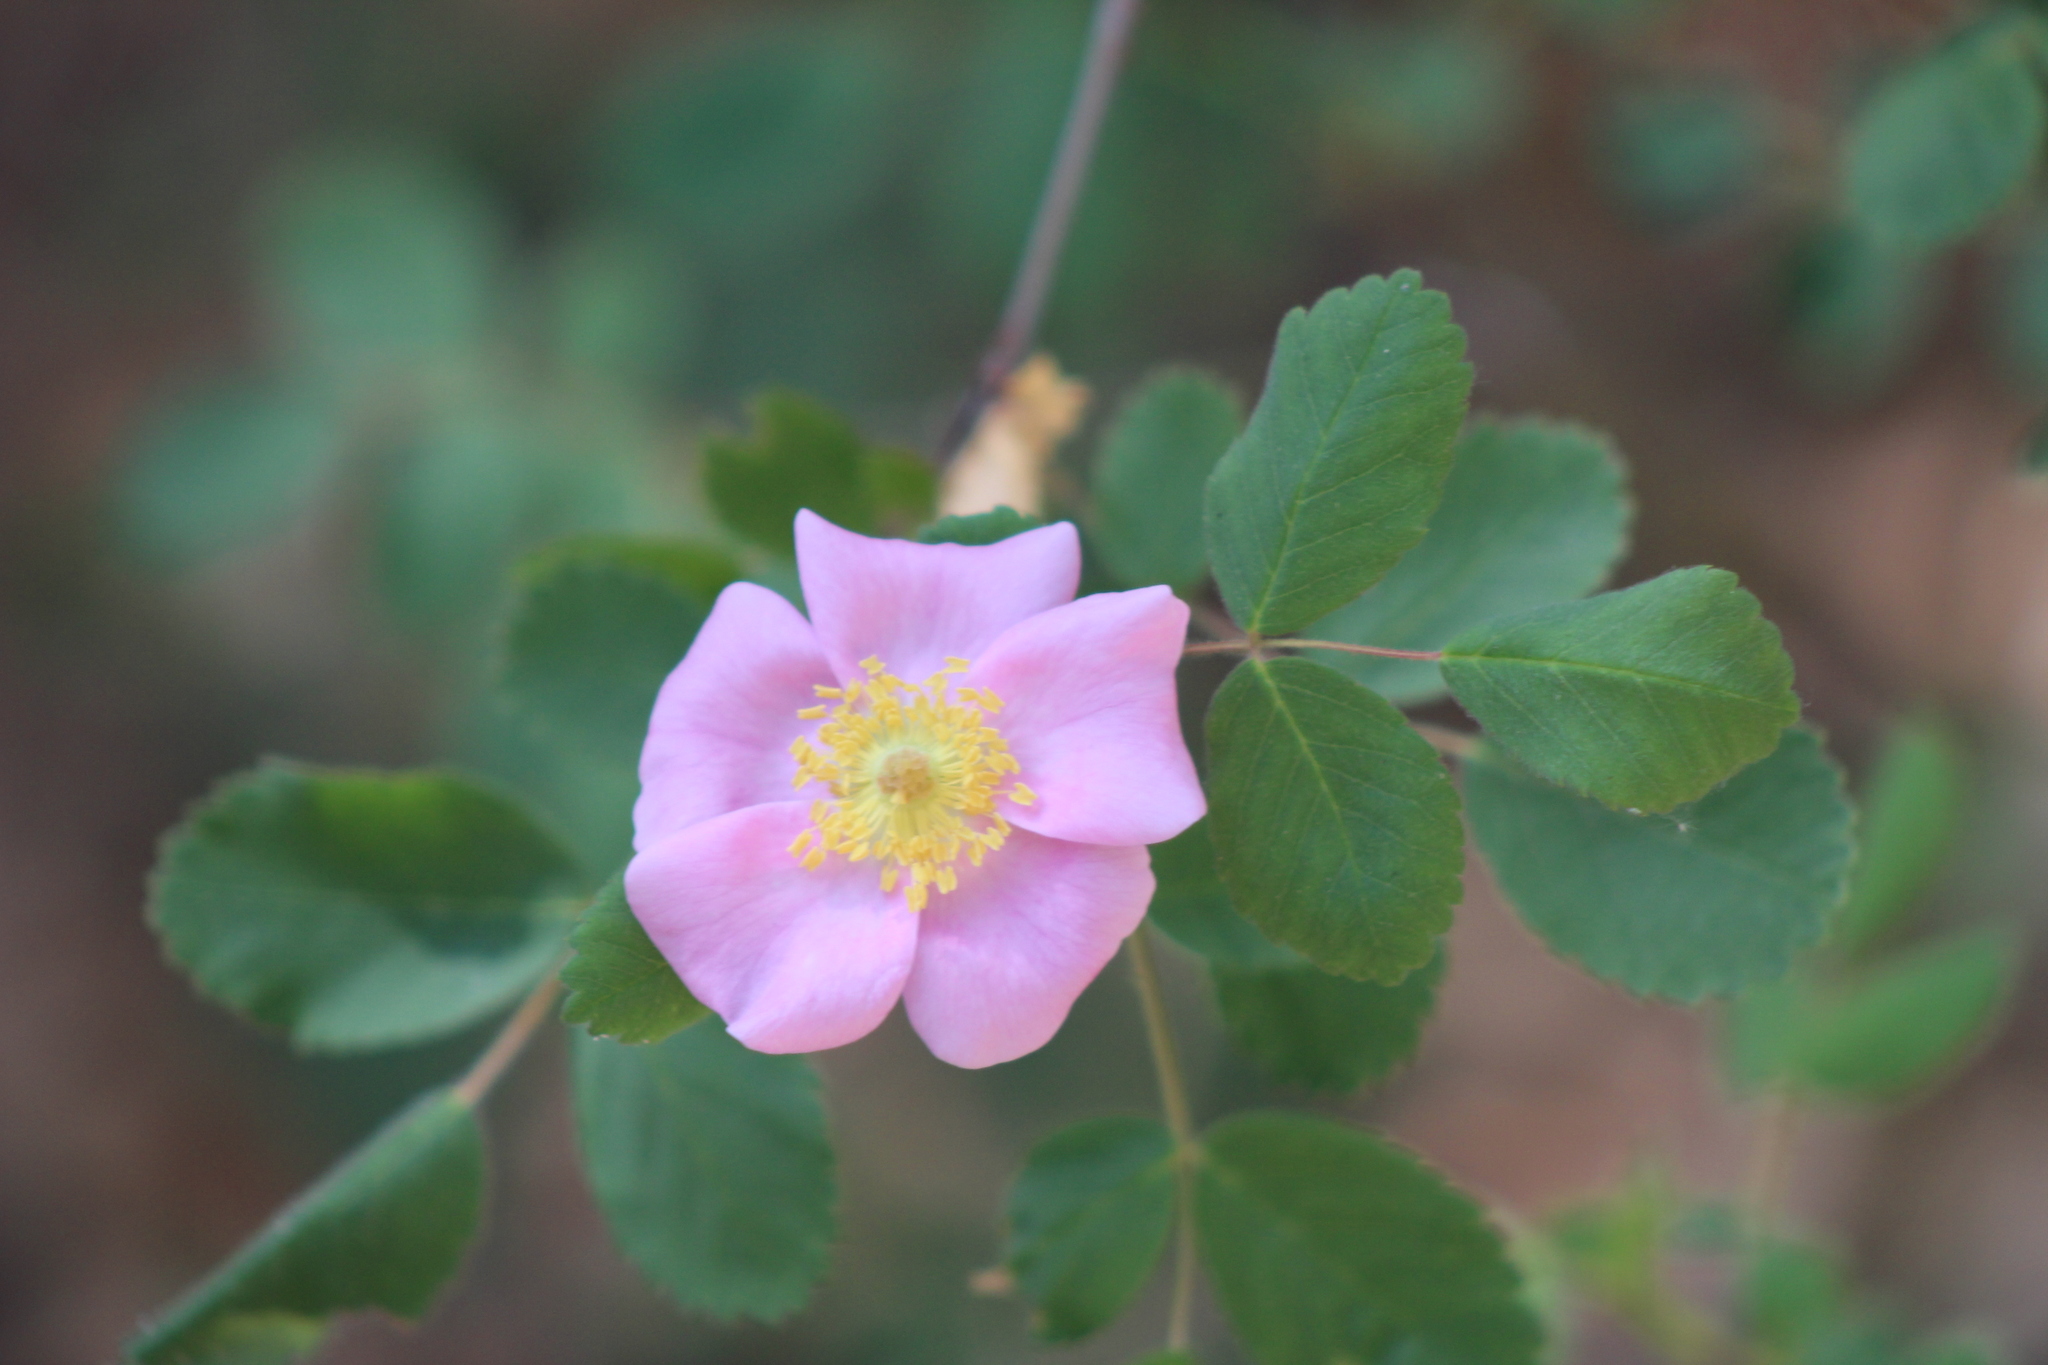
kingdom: Plantae
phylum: Tracheophyta
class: Magnoliopsida
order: Rosales
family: Rosaceae
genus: Rosa
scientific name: Rosa californica
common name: California rose
